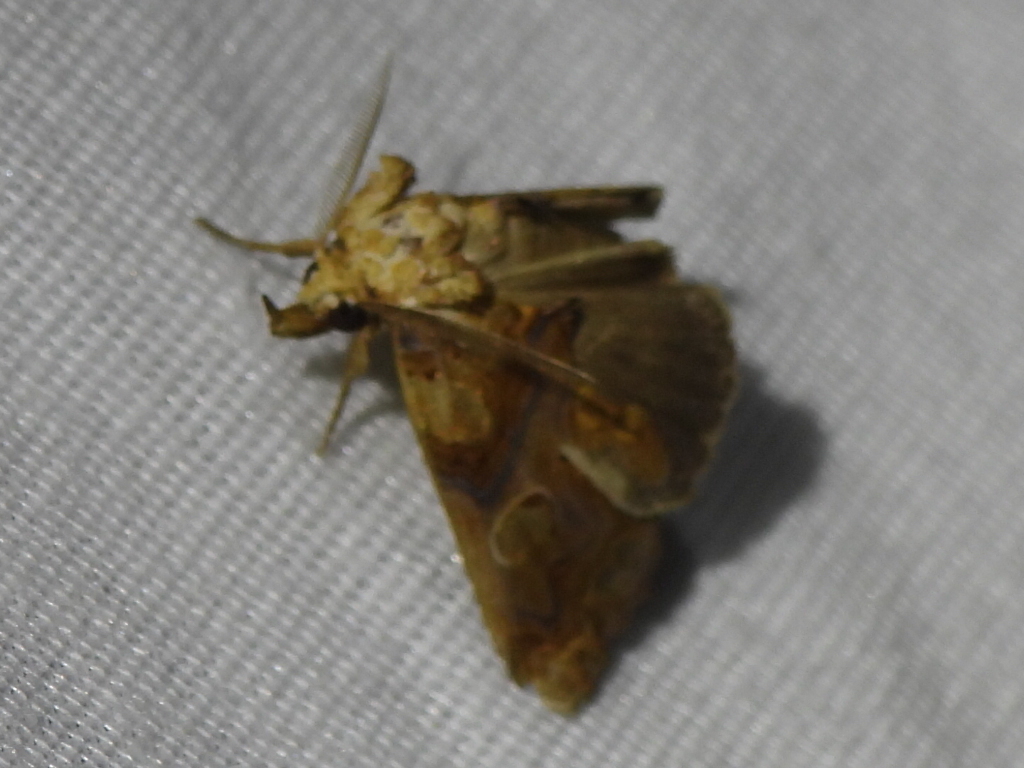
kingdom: Animalia
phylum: Arthropoda
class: Insecta
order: Lepidoptera
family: Erebidae
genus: Plusiodonta
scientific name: Plusiodonta compressipalpis
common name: Moonseed moth
